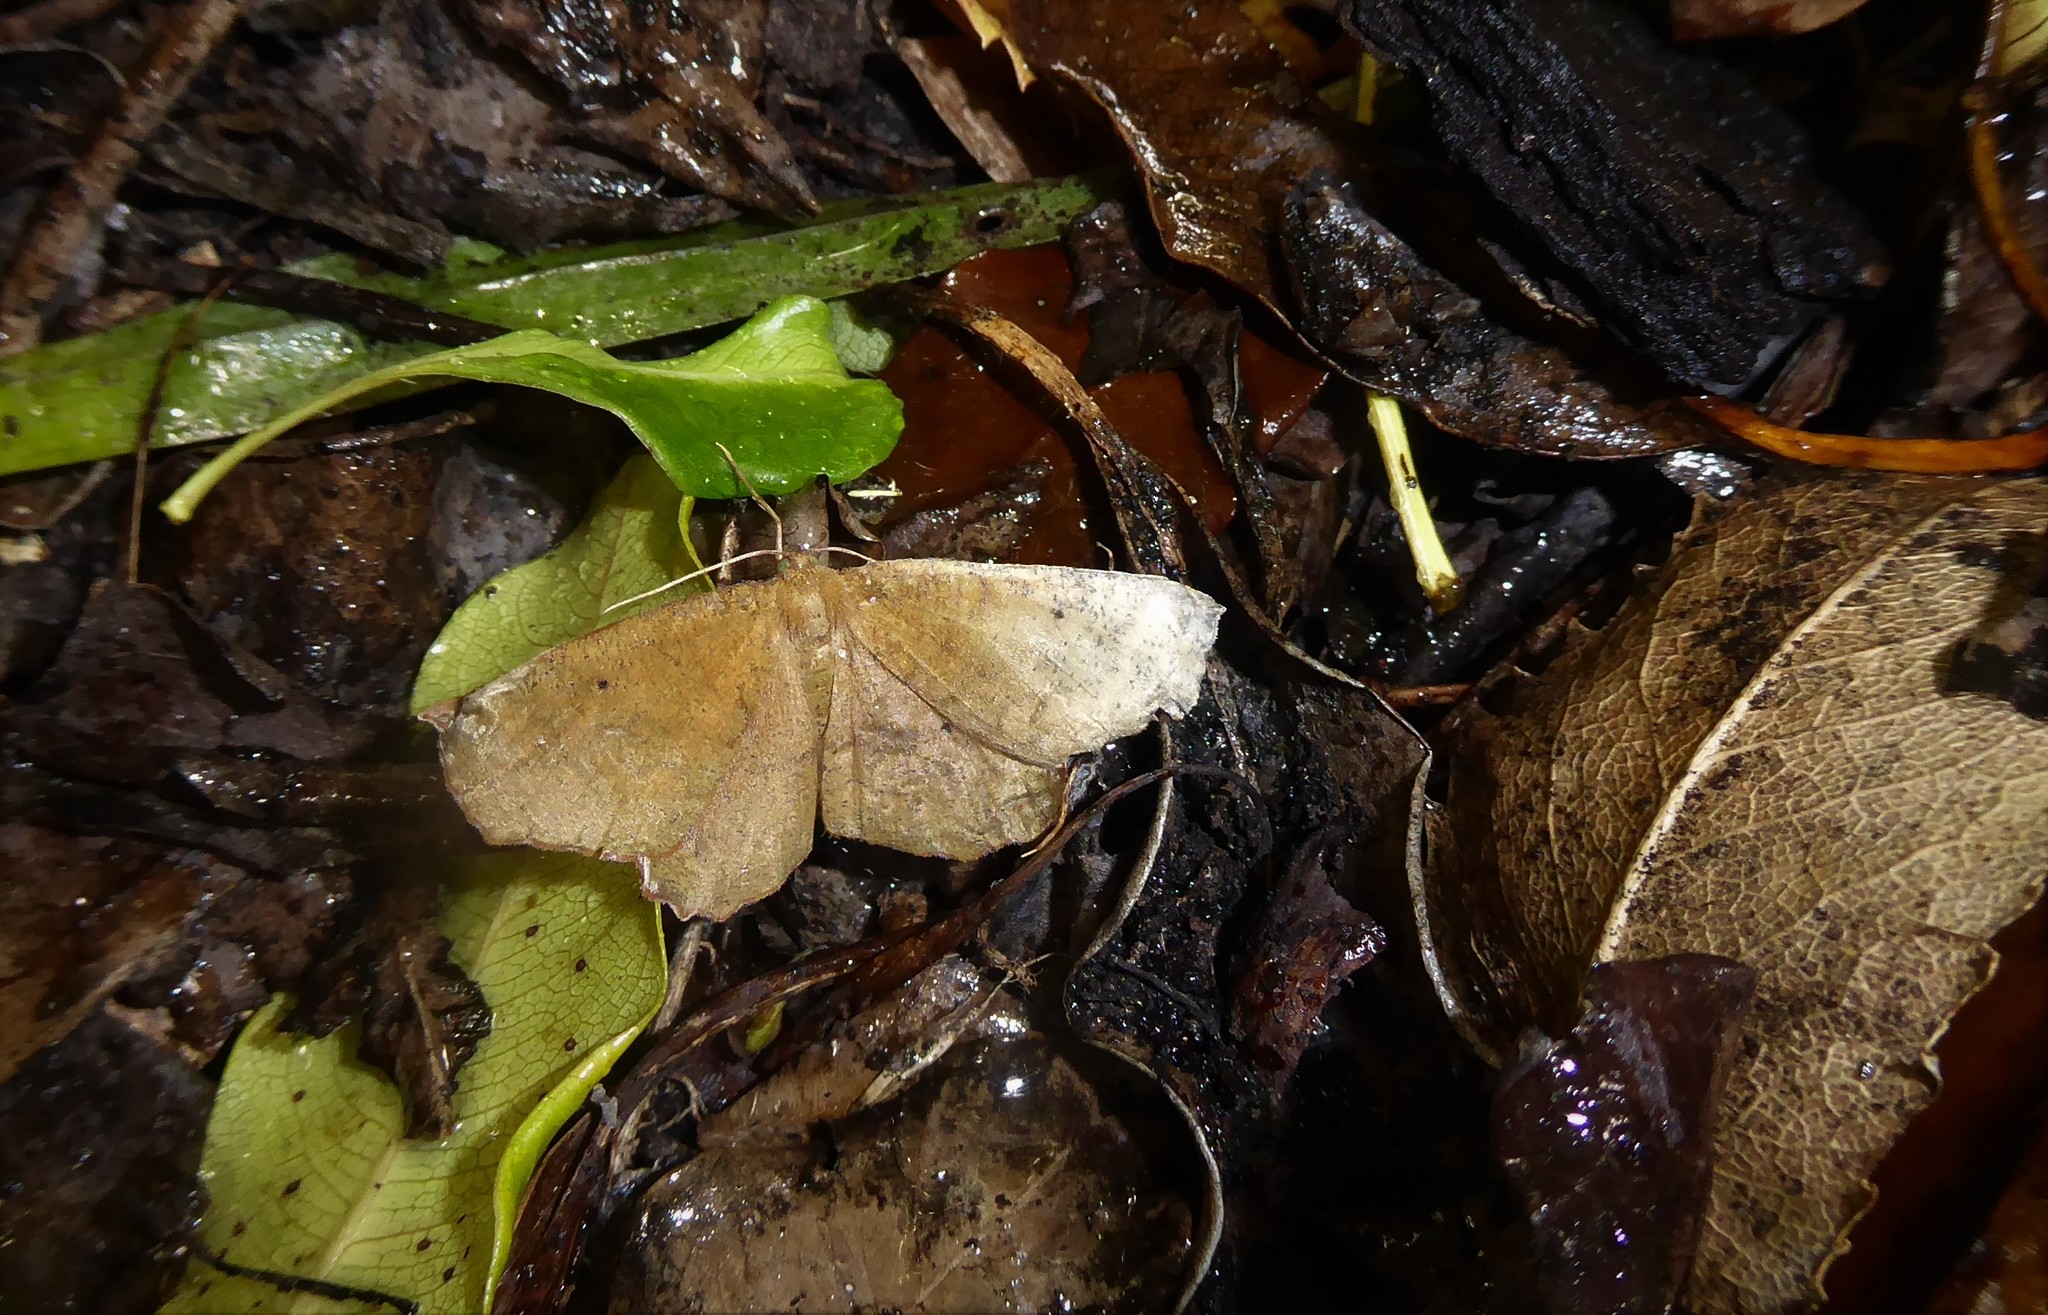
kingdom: Animalia
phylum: Arthropoda
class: Insecta
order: Lepidoptera
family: Geometridae
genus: Xyridacma
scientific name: Xyridacma ustaria
